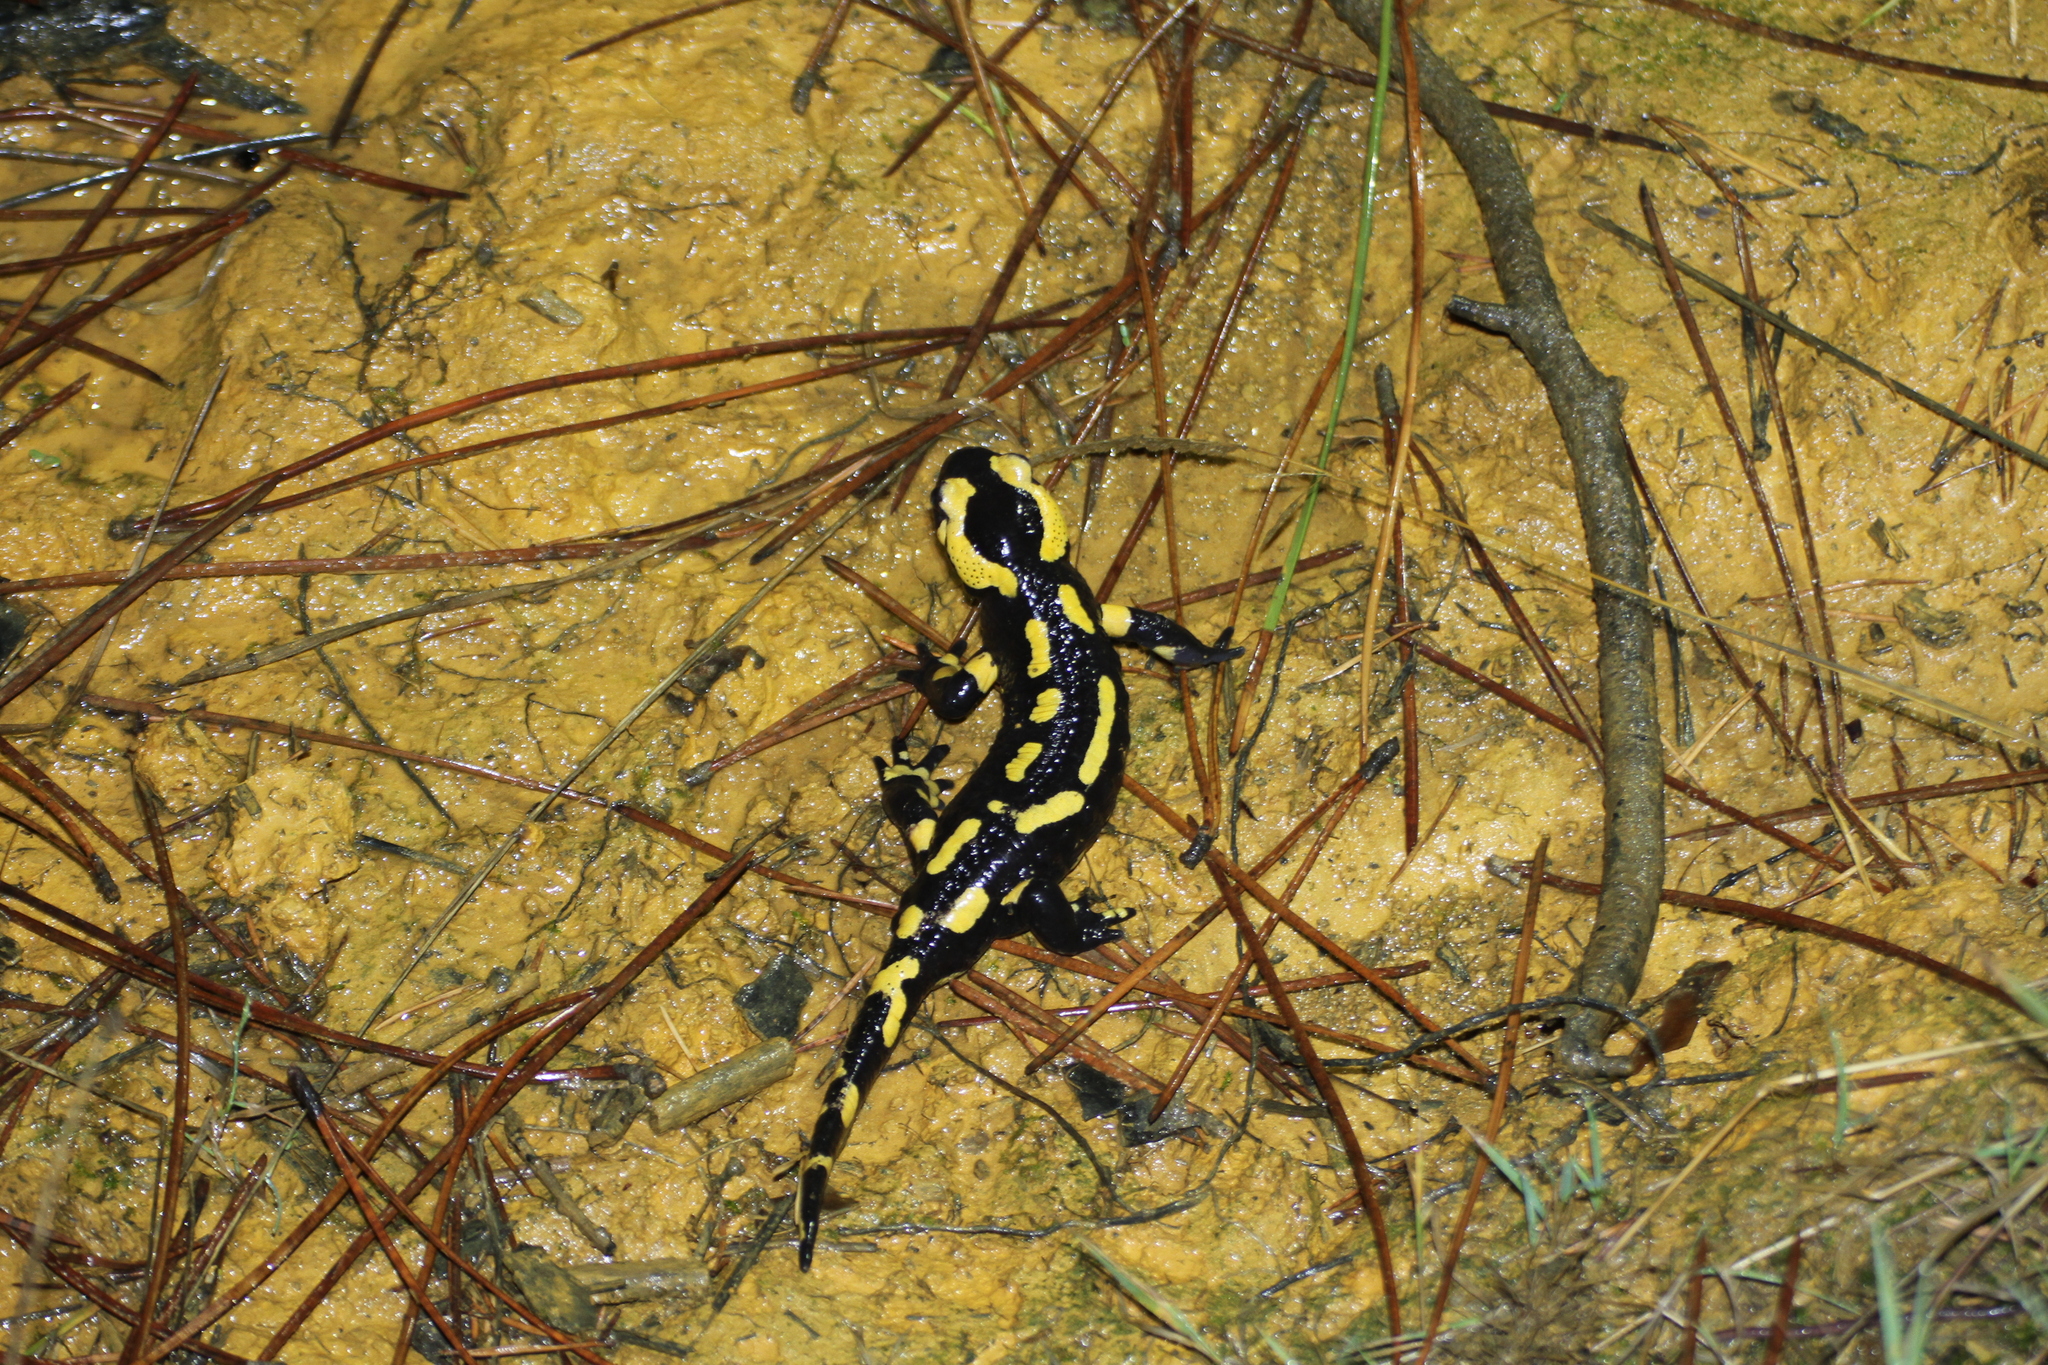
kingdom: Animalia
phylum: Chordata
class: Amphibia
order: Caudata
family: Salamandridae
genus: Salamandra
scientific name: Salamandra salamandra
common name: Fire salamander
